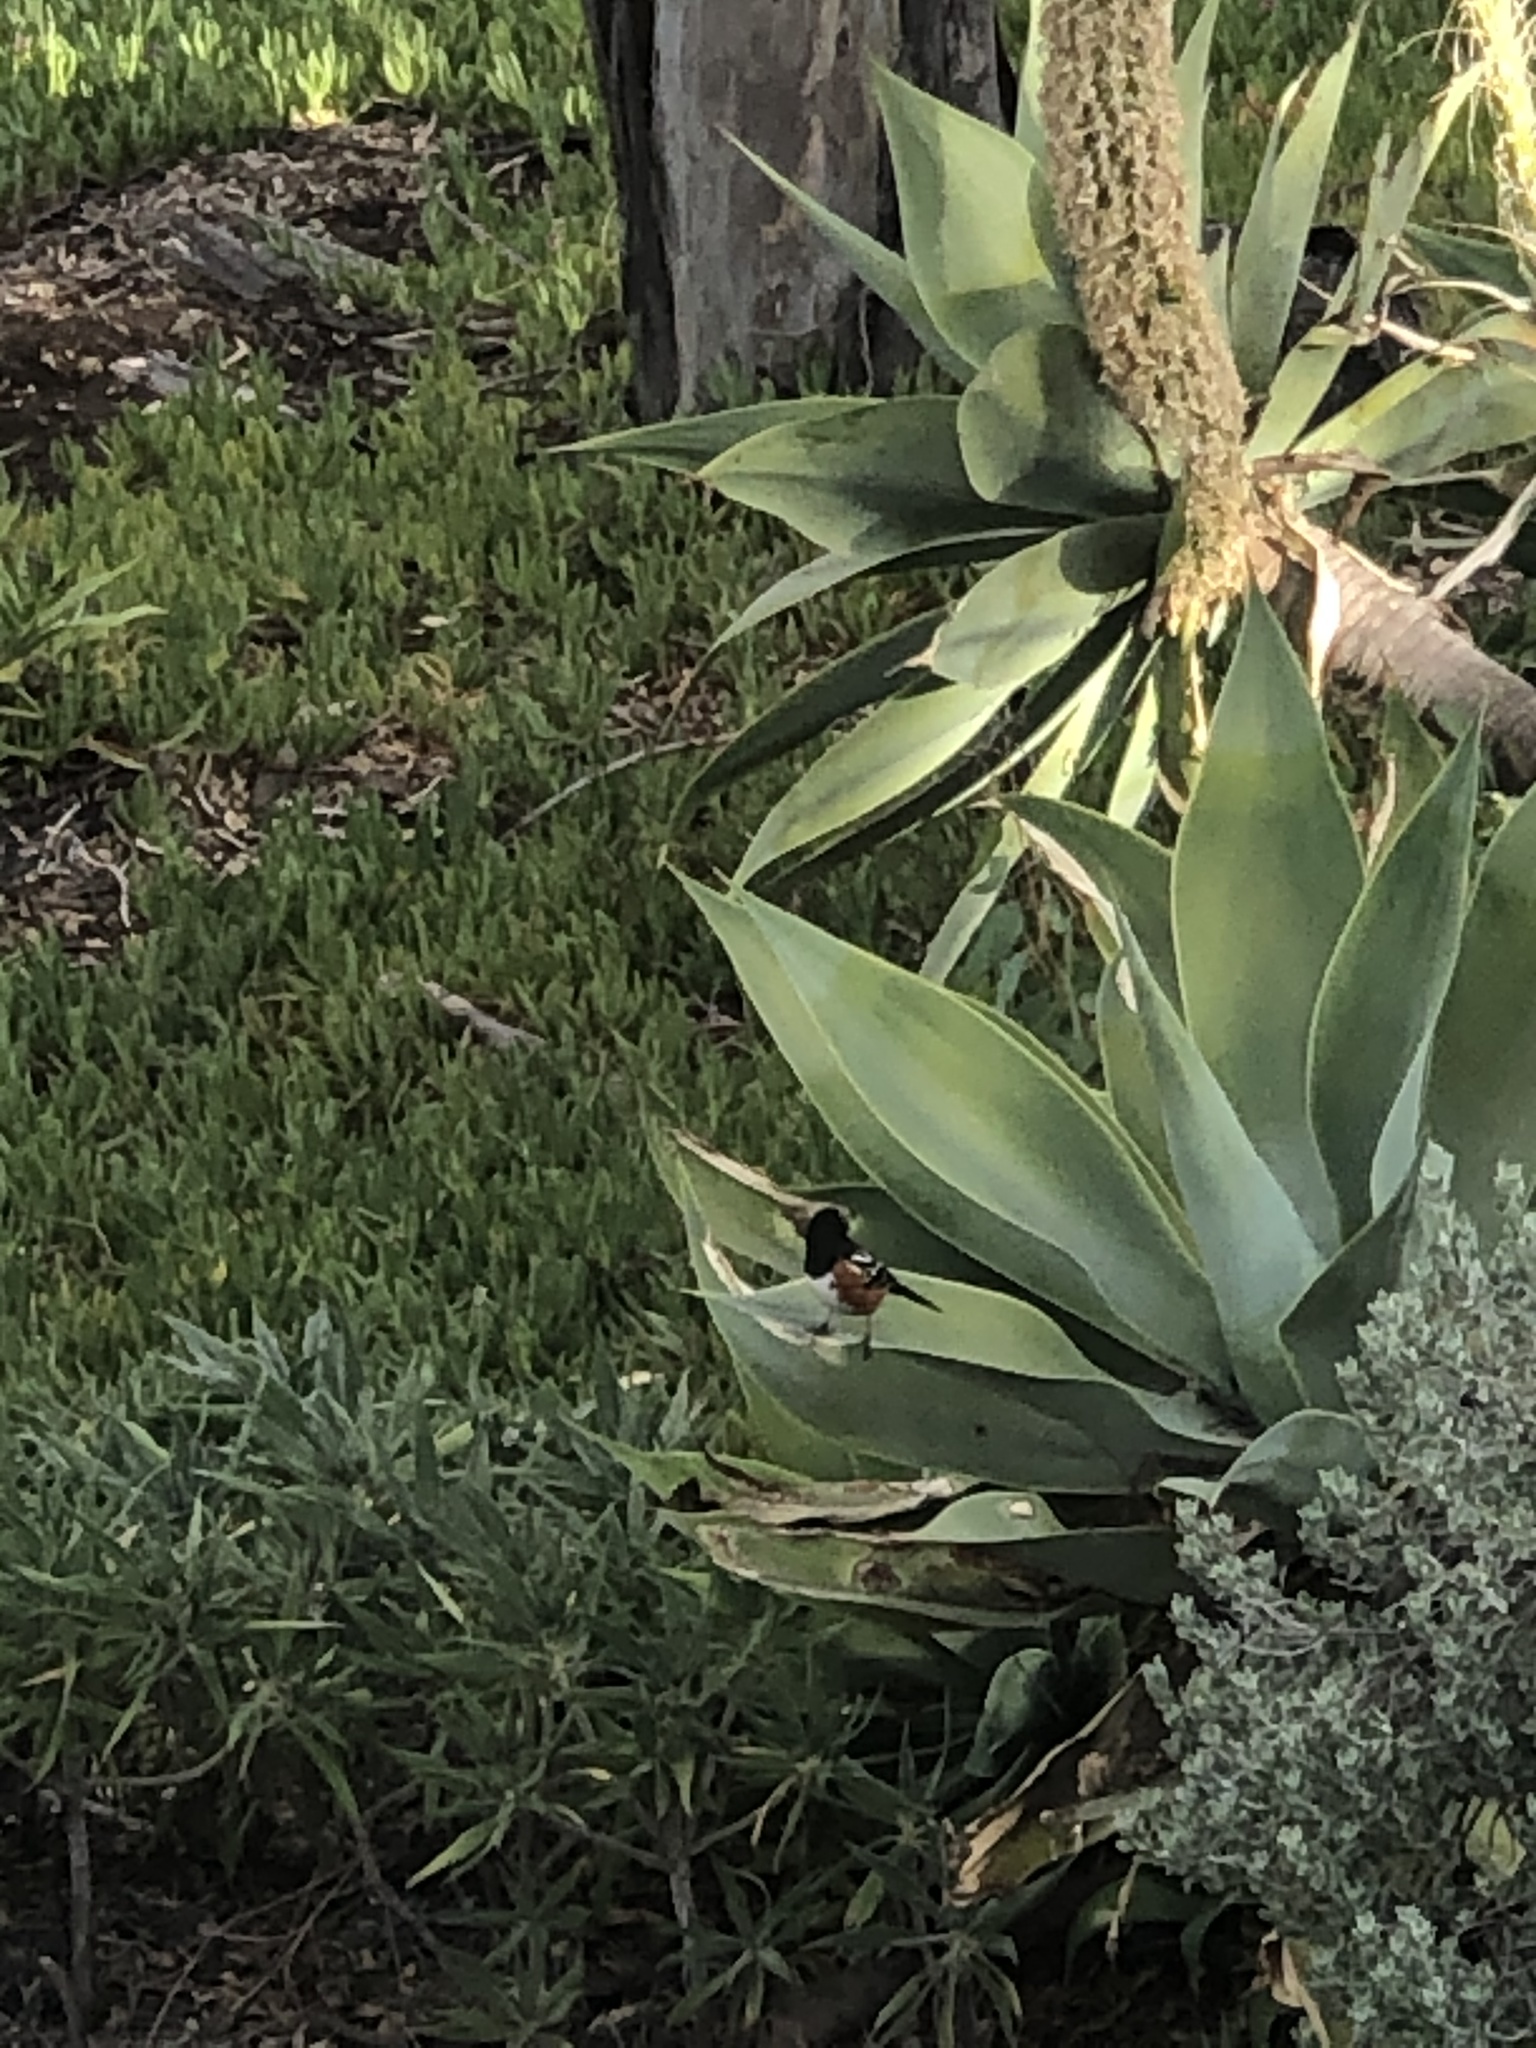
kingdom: Animalia
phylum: Chordata
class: Aves
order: Passeriformes
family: Passerellidae
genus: Pipilo
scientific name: Pipilo maculatus
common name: Spotted towhee
